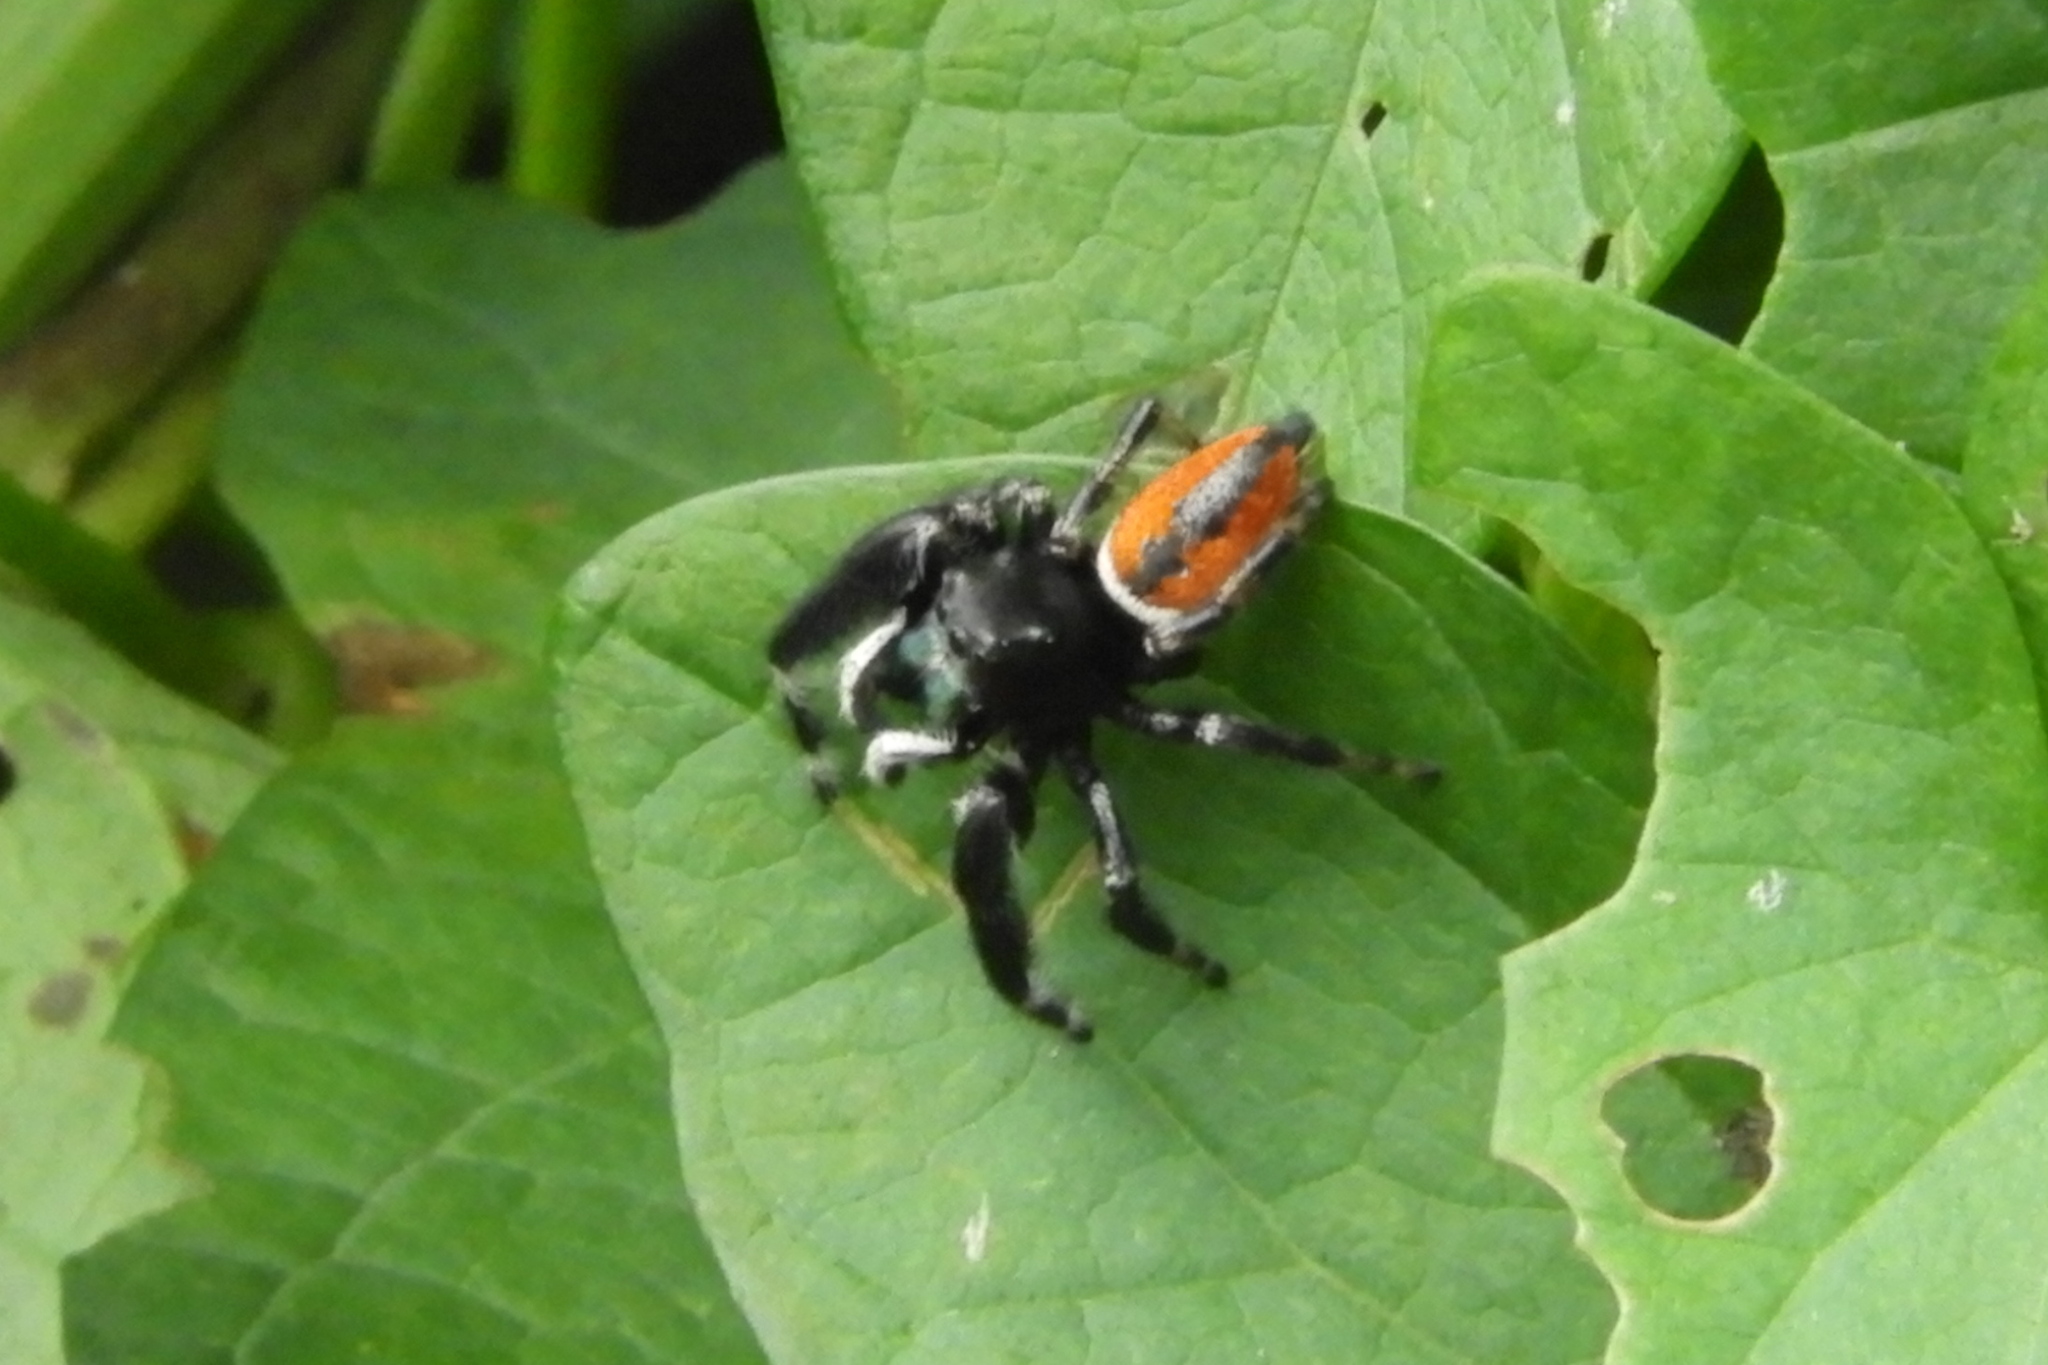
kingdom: Animalia
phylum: Arthropoda
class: Arachnida
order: Araneae
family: Salticidae
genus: Phidippus
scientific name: Phidippus clarus
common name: Brilliant jumping spider
